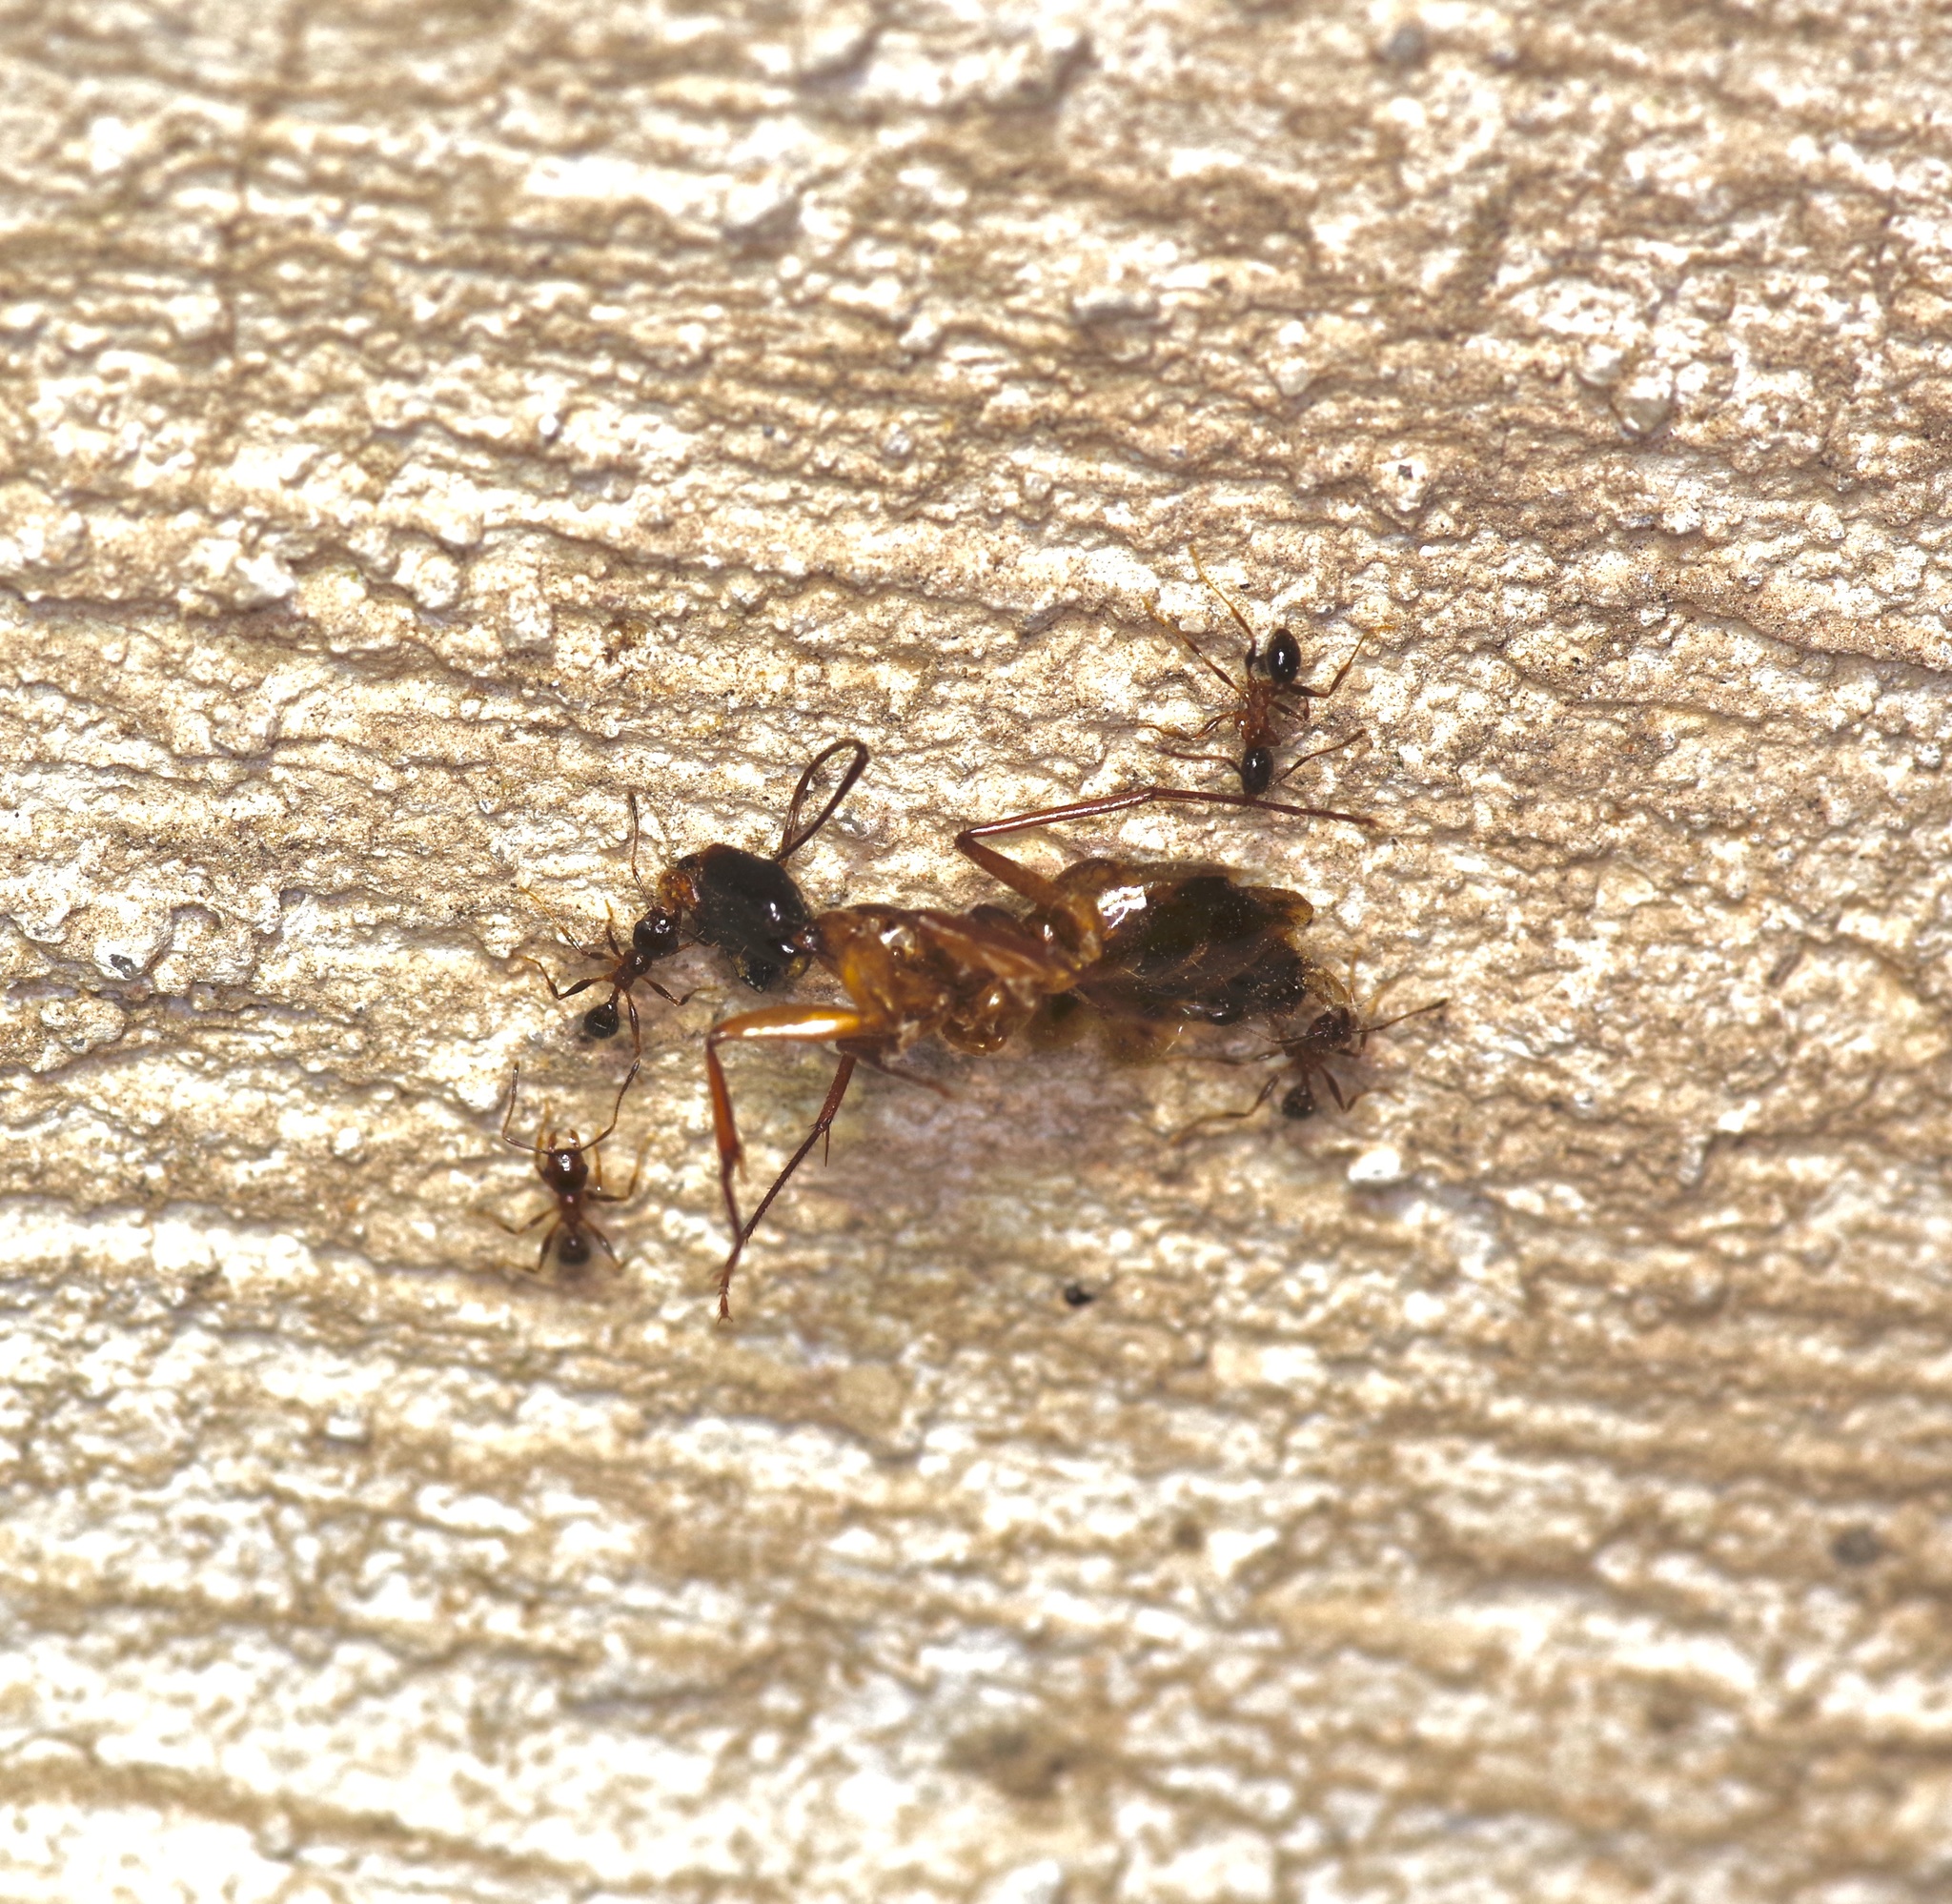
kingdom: Animalia
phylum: Arthropoda
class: Insecta
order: Hymenoptera
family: Formicidae
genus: Camponotus
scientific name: Camponotus festinatus
